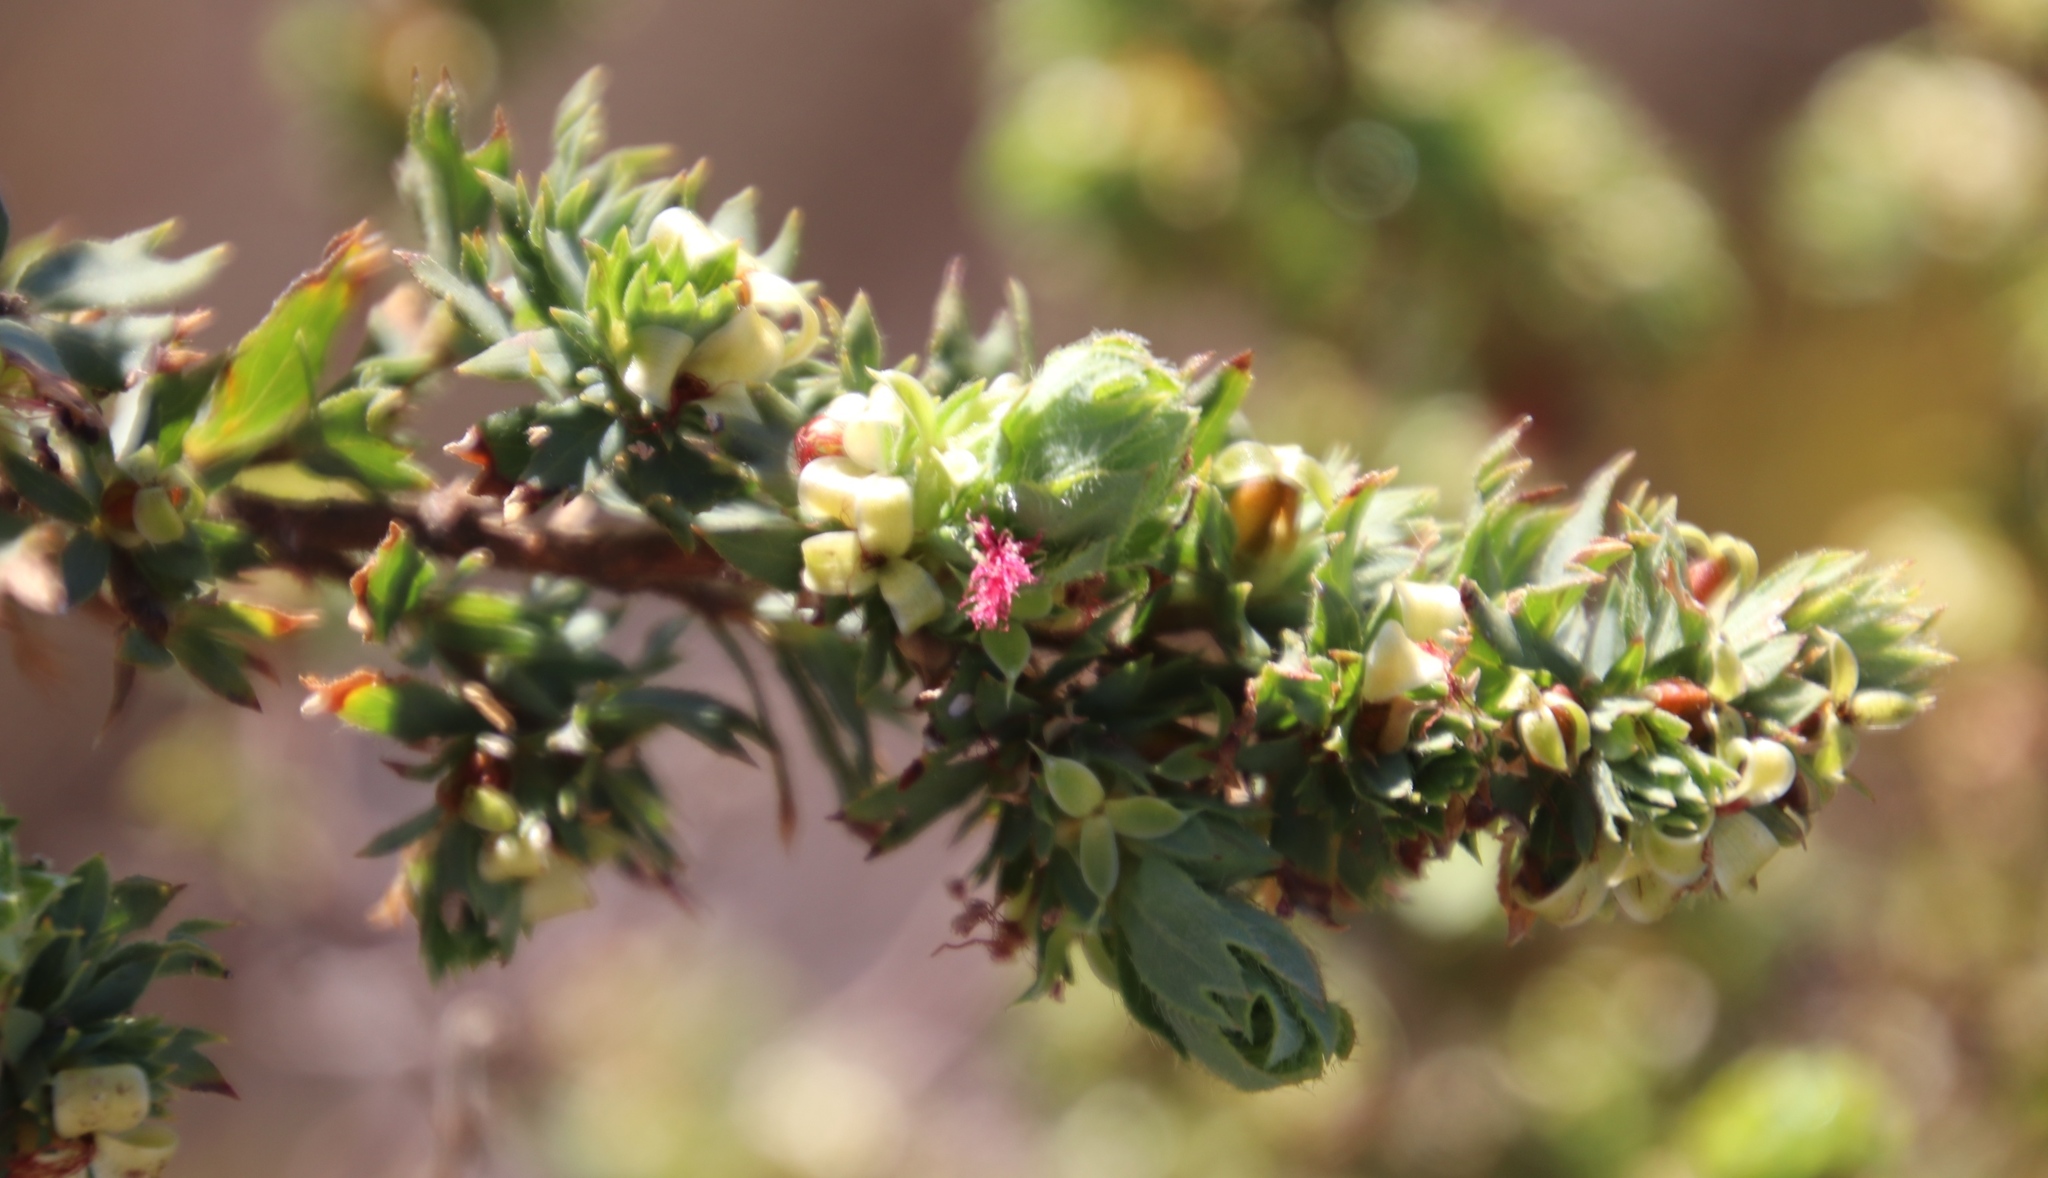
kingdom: Plantae
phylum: Tracheophyta
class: Magnoliopsida
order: Rosales
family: Rosaceae
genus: Cliffortia
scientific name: Cliffortia polygonifolia
